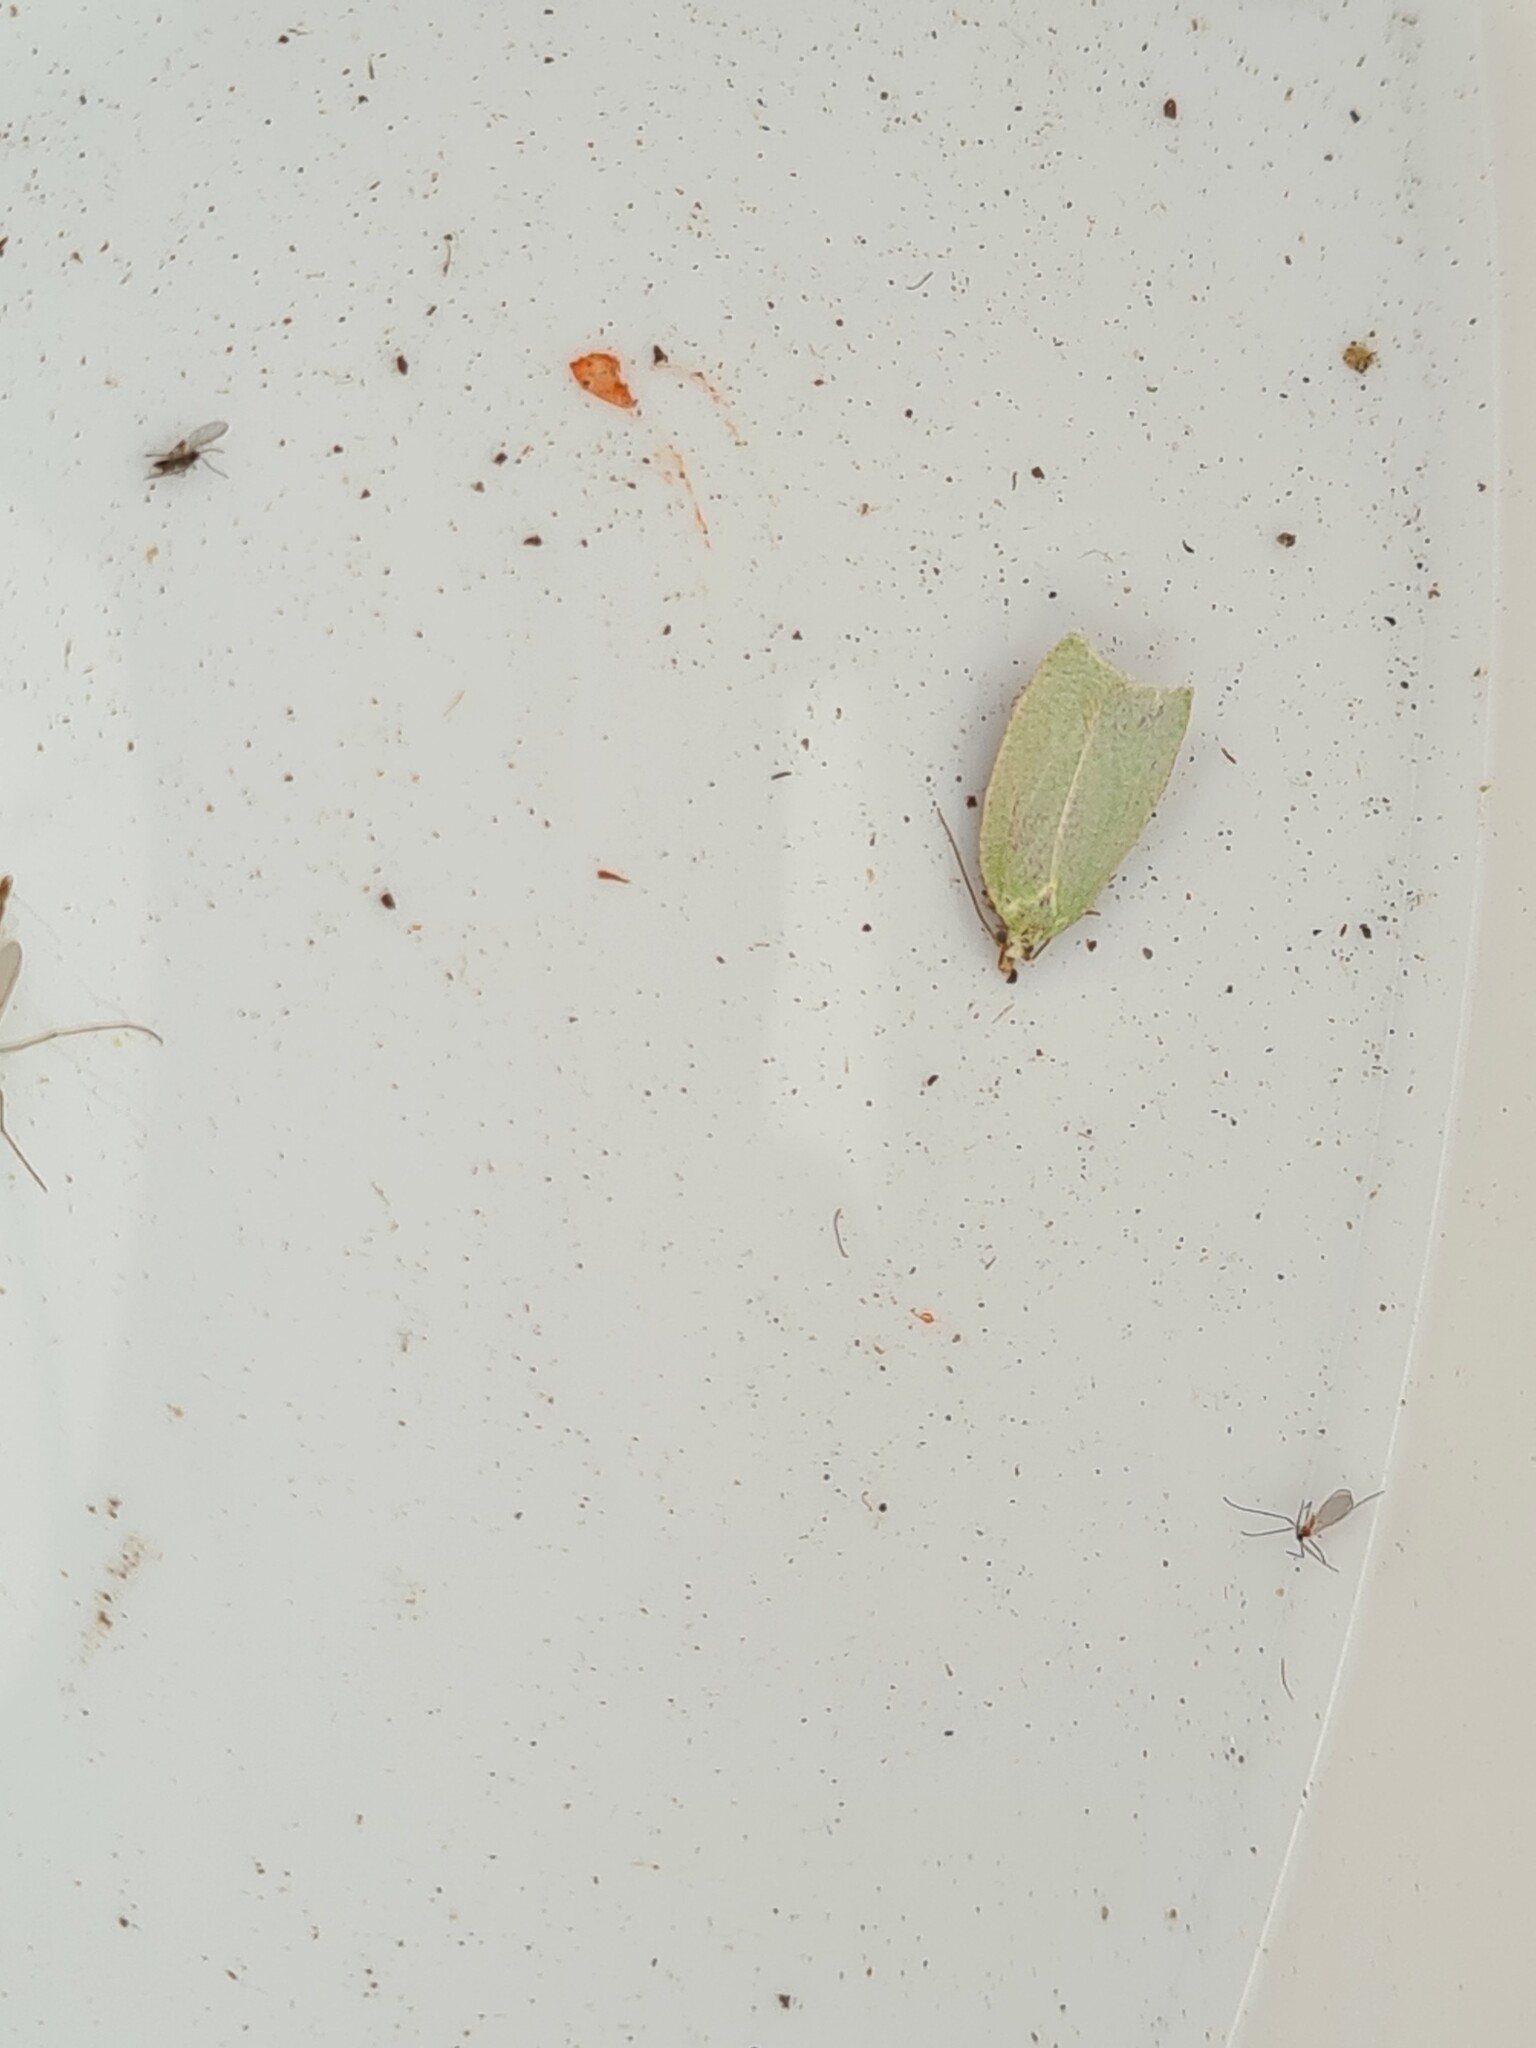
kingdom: Animalia
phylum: Arthropoda
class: Insecta
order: Lepidoptera
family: Tortricidae
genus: Tortrix
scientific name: Tortrix viridana
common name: Green oak tortrix
